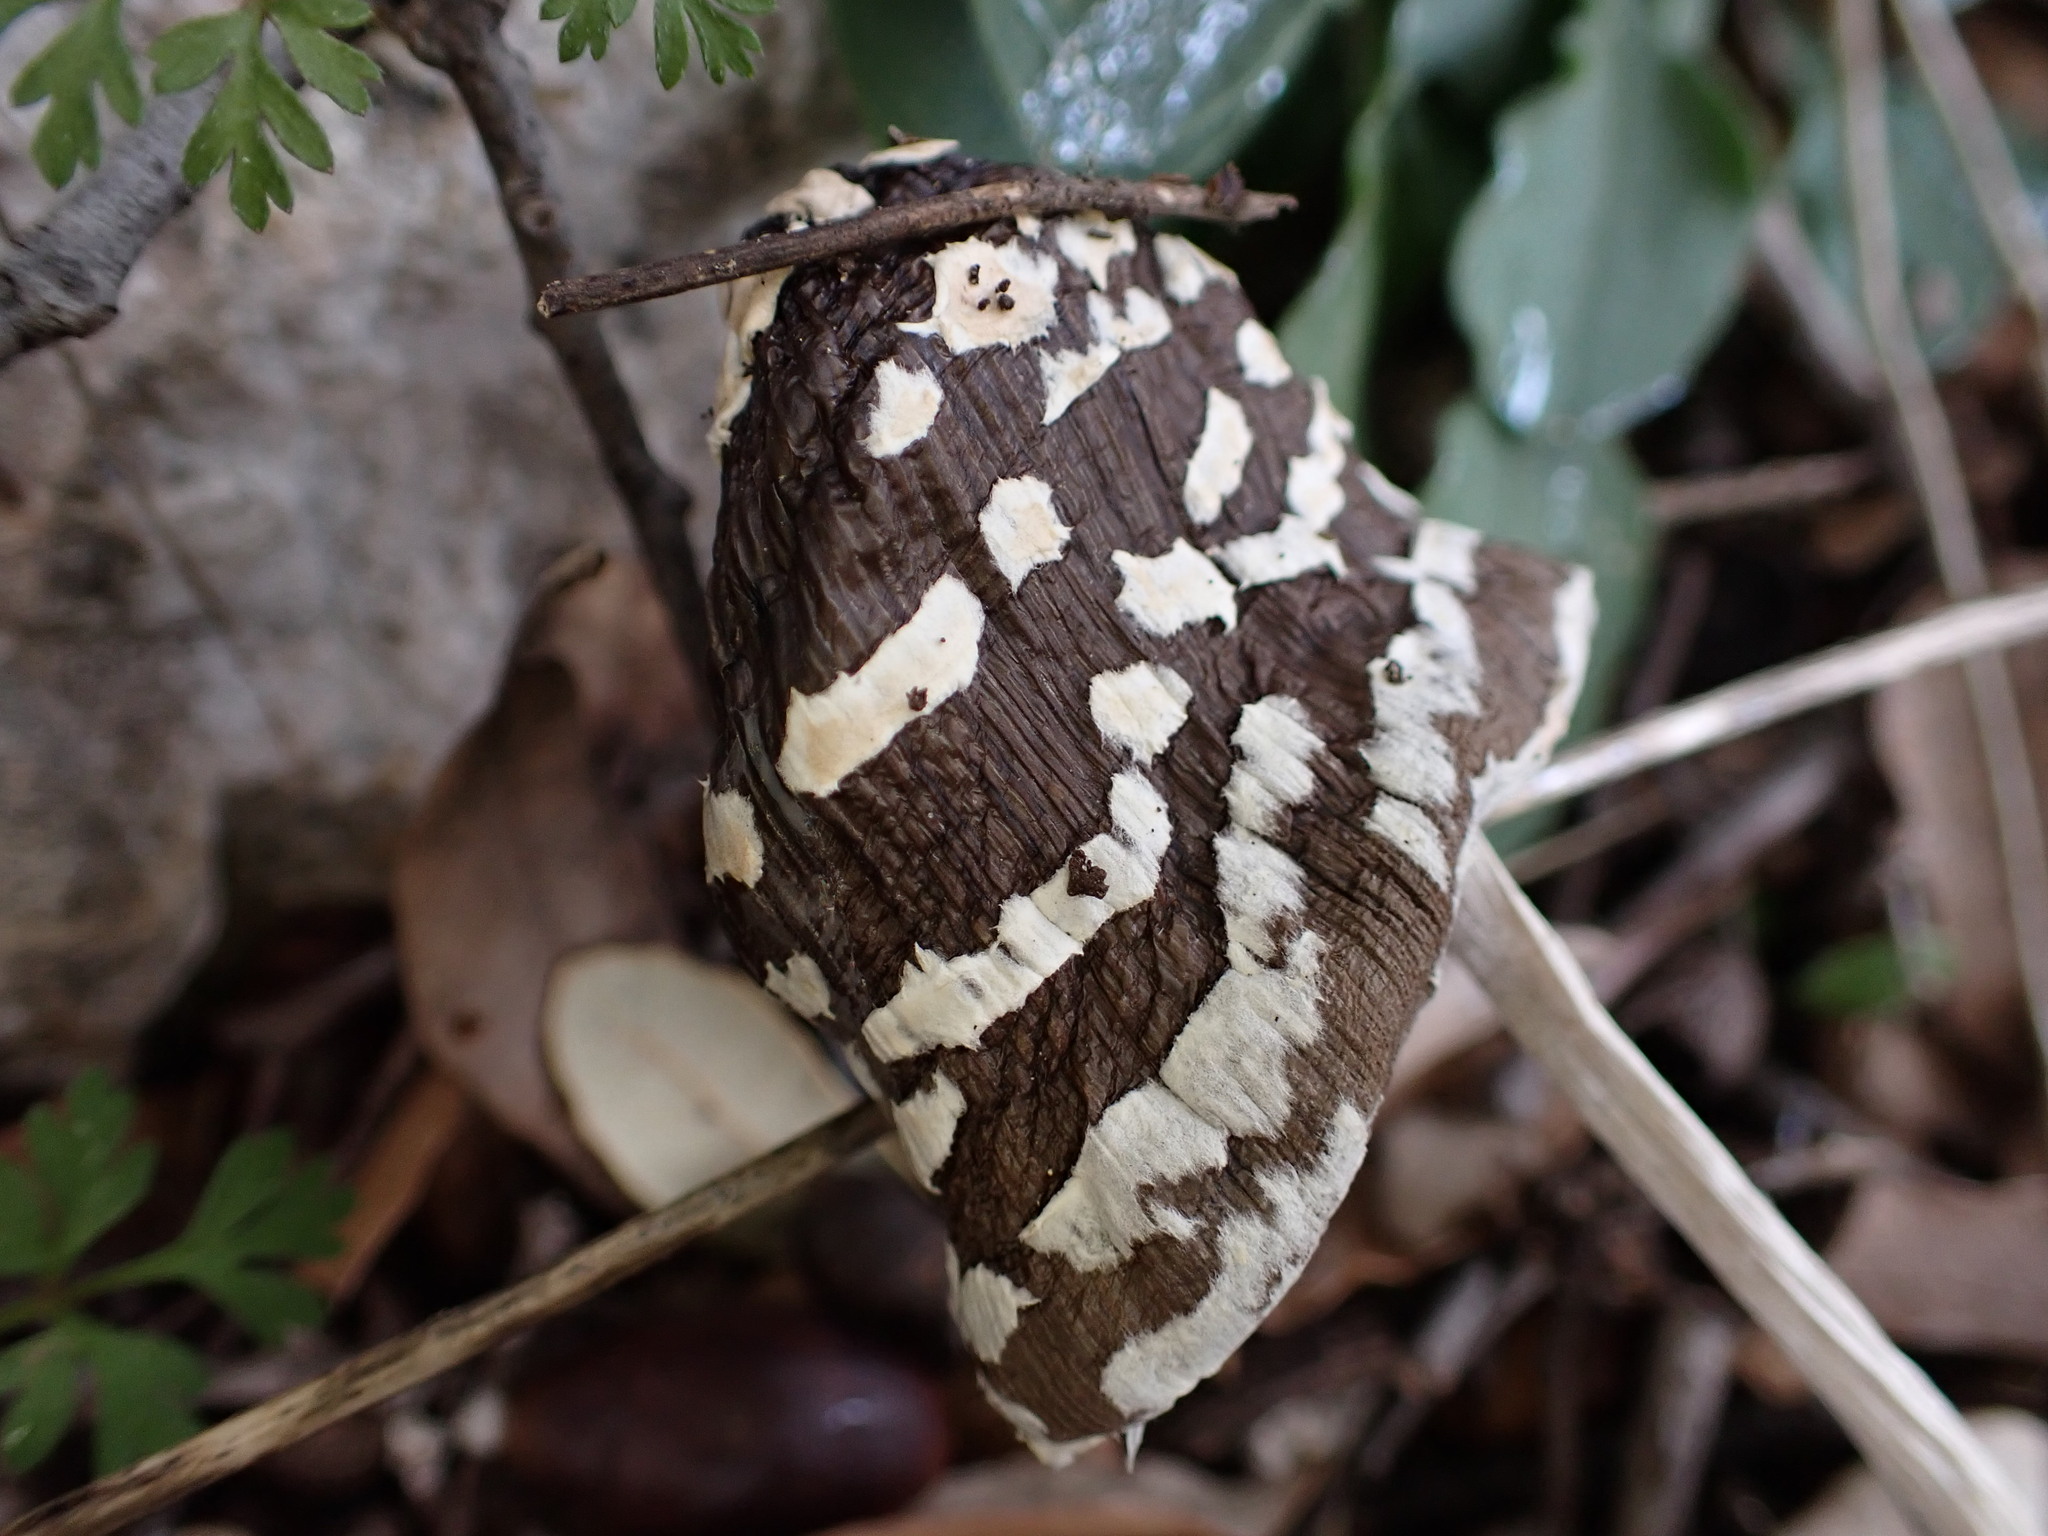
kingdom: Fungi
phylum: Basidiomycota
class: Agaricomycetes
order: Agaricales
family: Psathyrellaceae
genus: Coprinopsis
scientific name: Coprinopsis picacea
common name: Magpie inkcap
